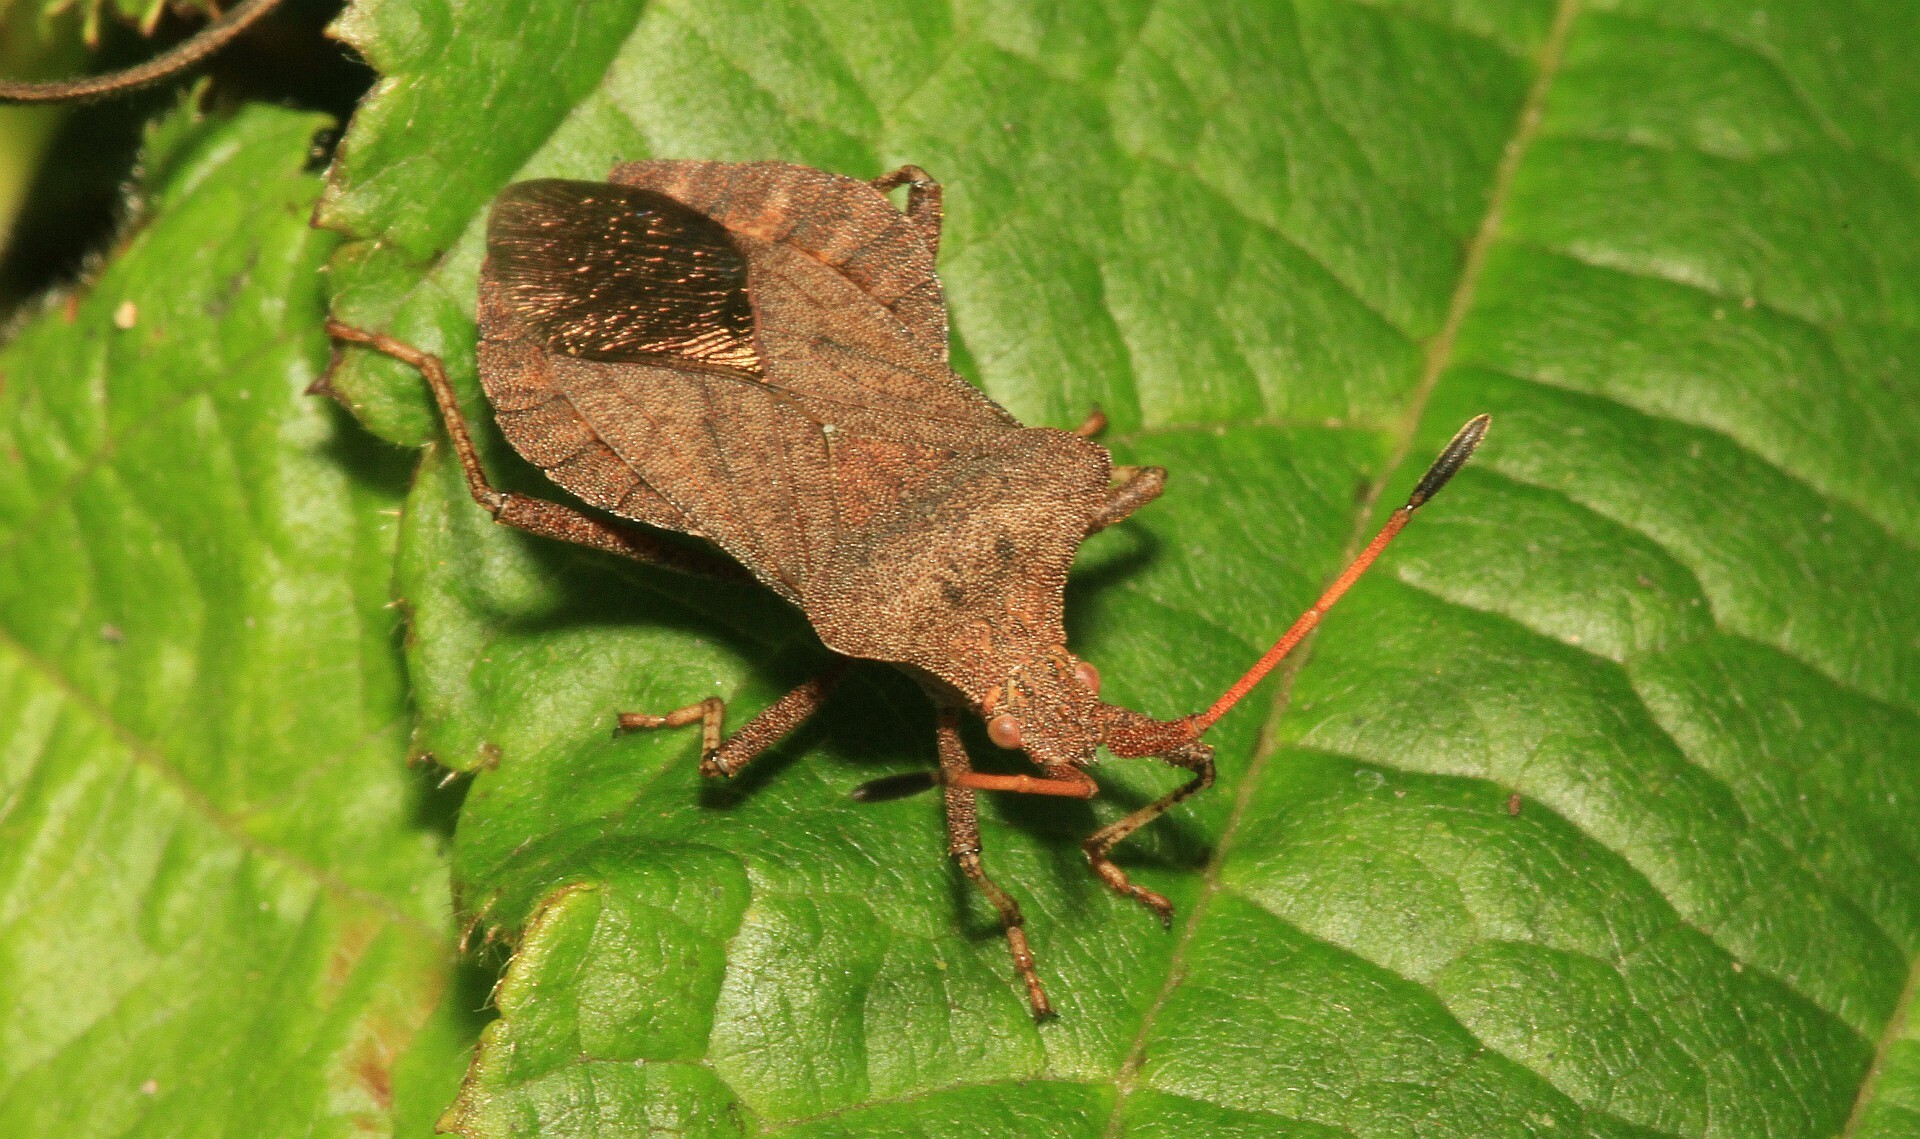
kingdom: Animalia
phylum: Arthropoda
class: Insecta
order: Hemiptera
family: Coreidae
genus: Coreus
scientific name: Coreus marginatus
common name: Dock bug
